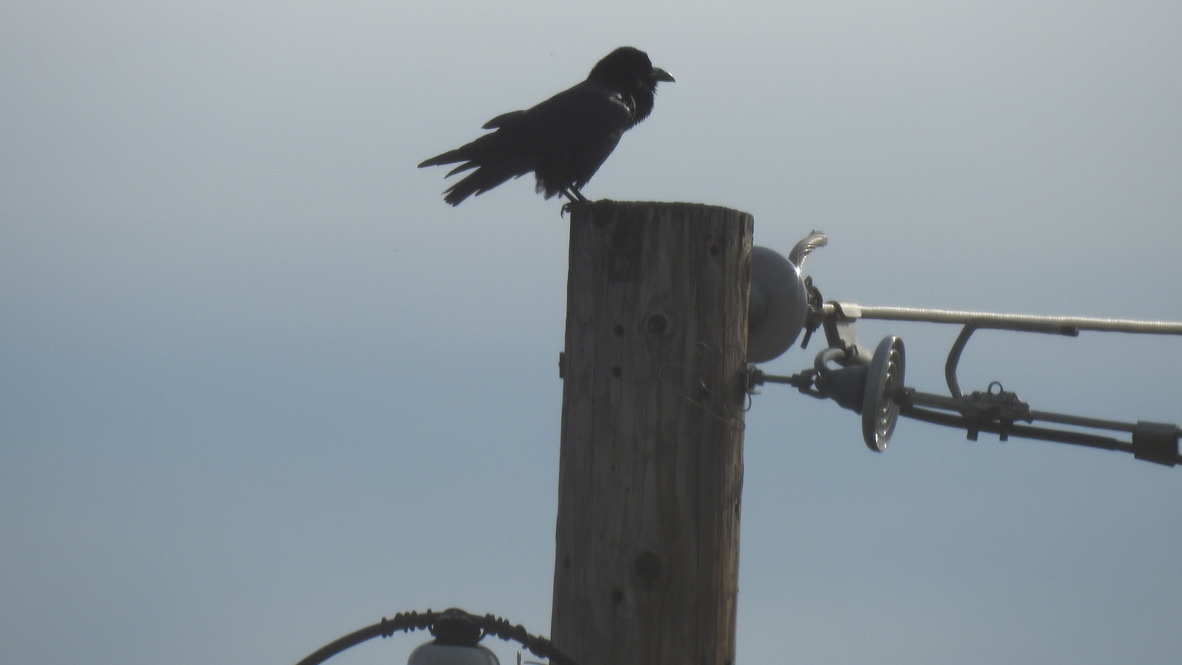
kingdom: Animalia
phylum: Chordata
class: Aves
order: Passeriformes
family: Corvidae
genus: Corvus
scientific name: Corvus corax
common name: Common raven
